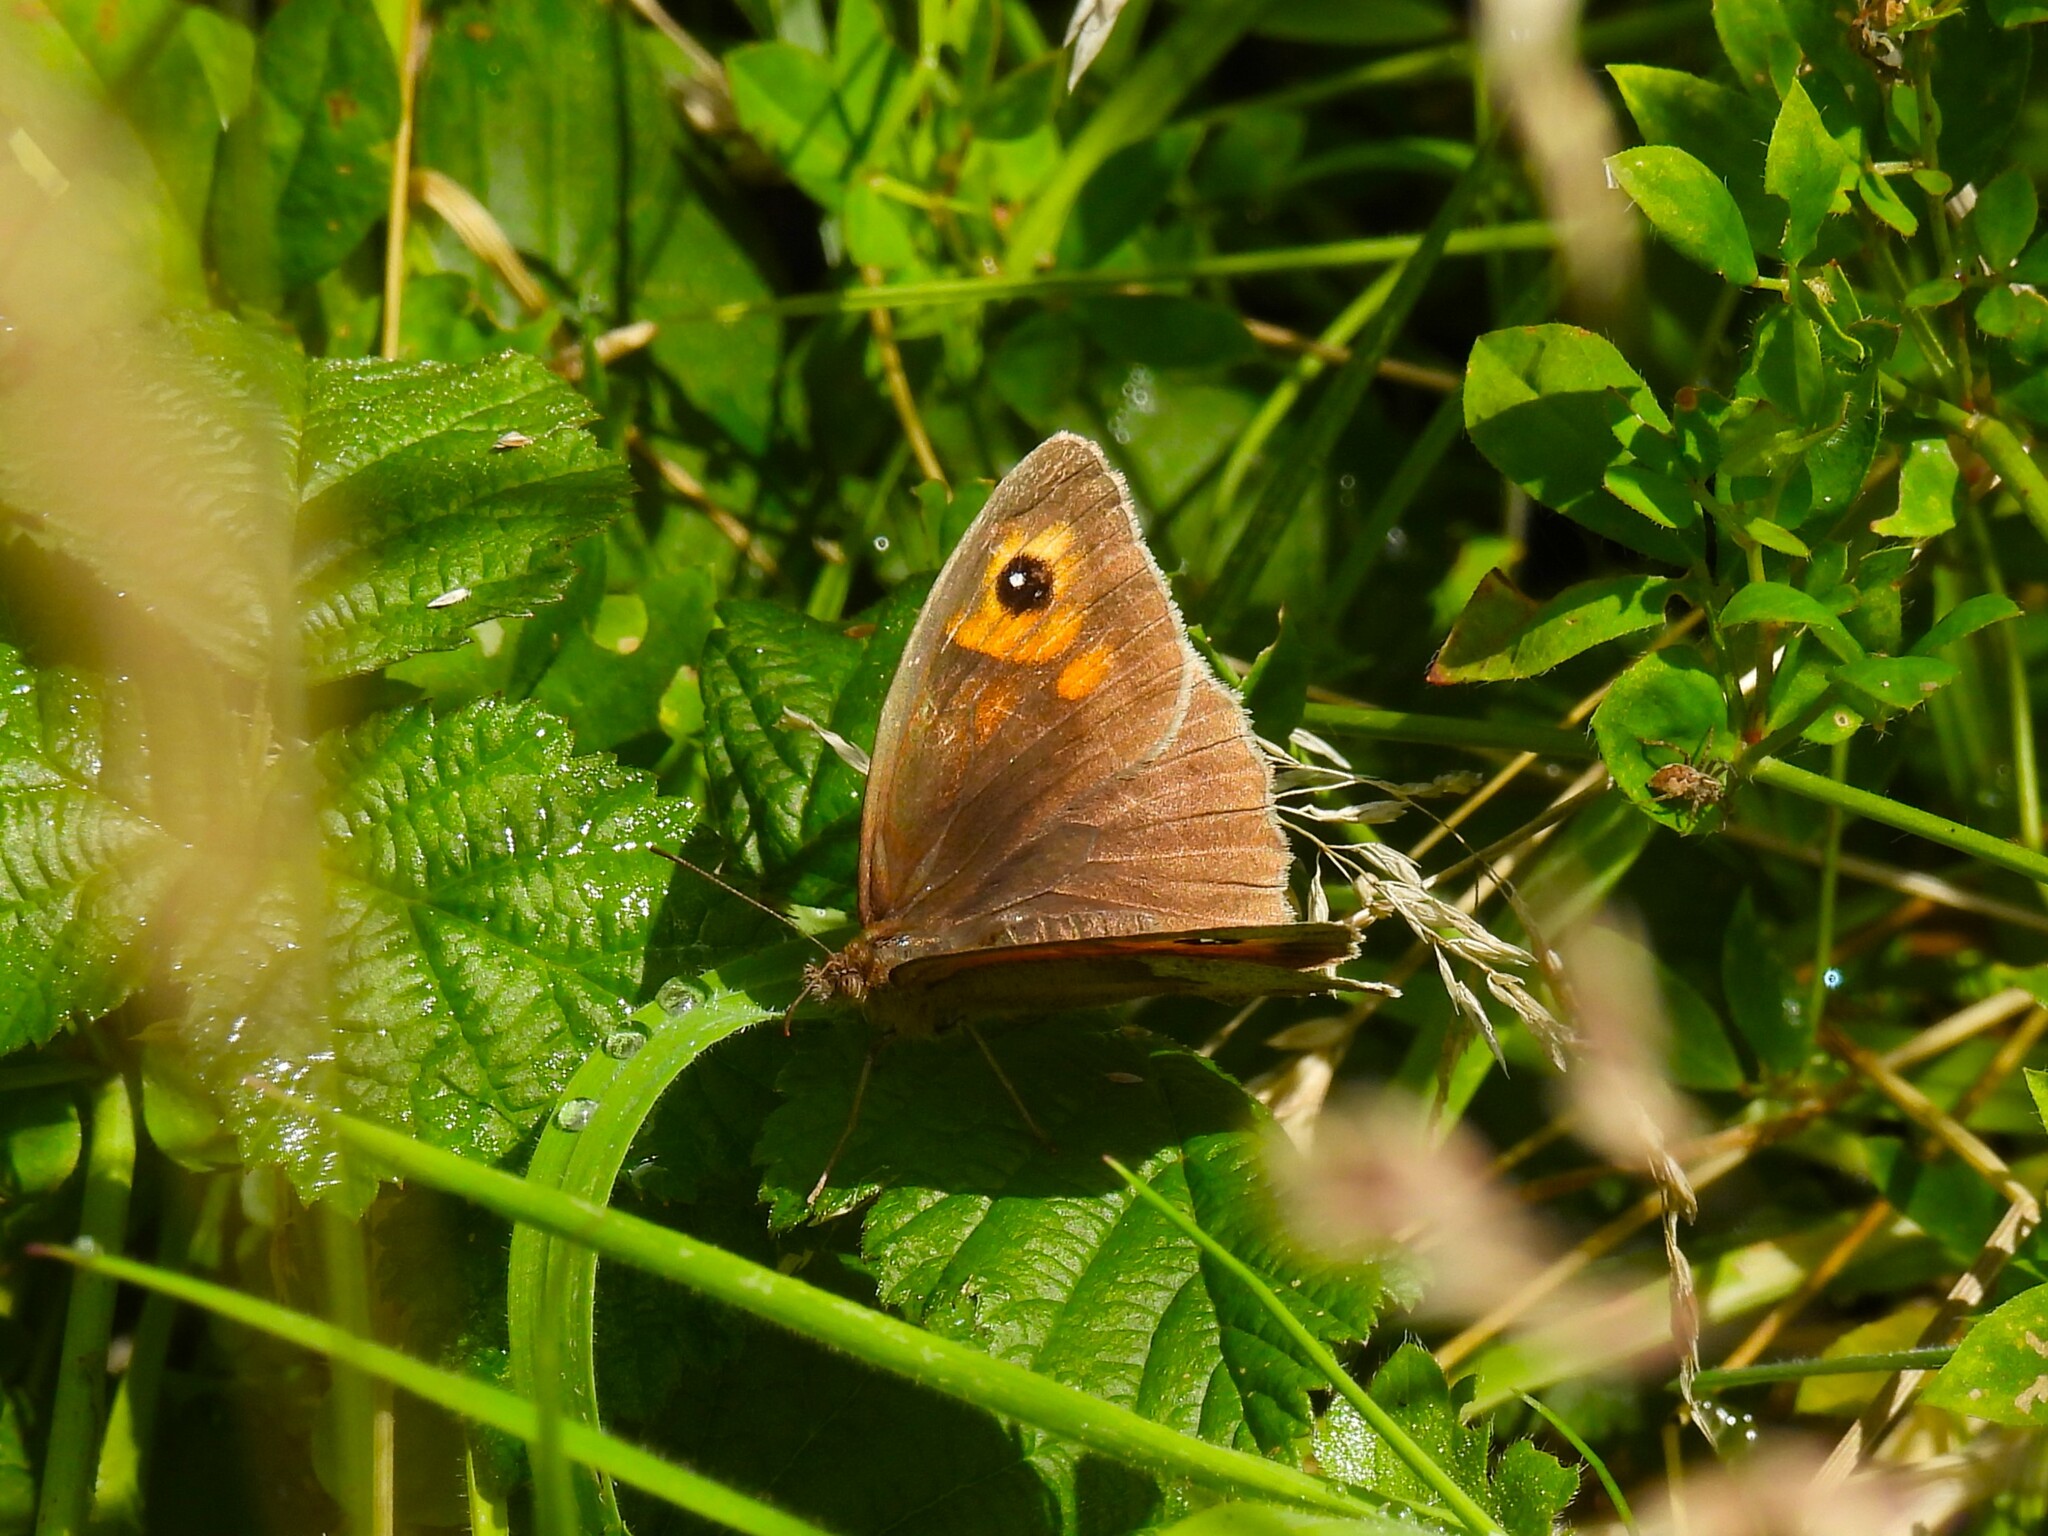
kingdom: Animalia
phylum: Arthropoda
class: Insecta
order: Lepidoptera
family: Nymphalidae
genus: Maniola
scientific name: Maniola jurtina
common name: Meadow brown
